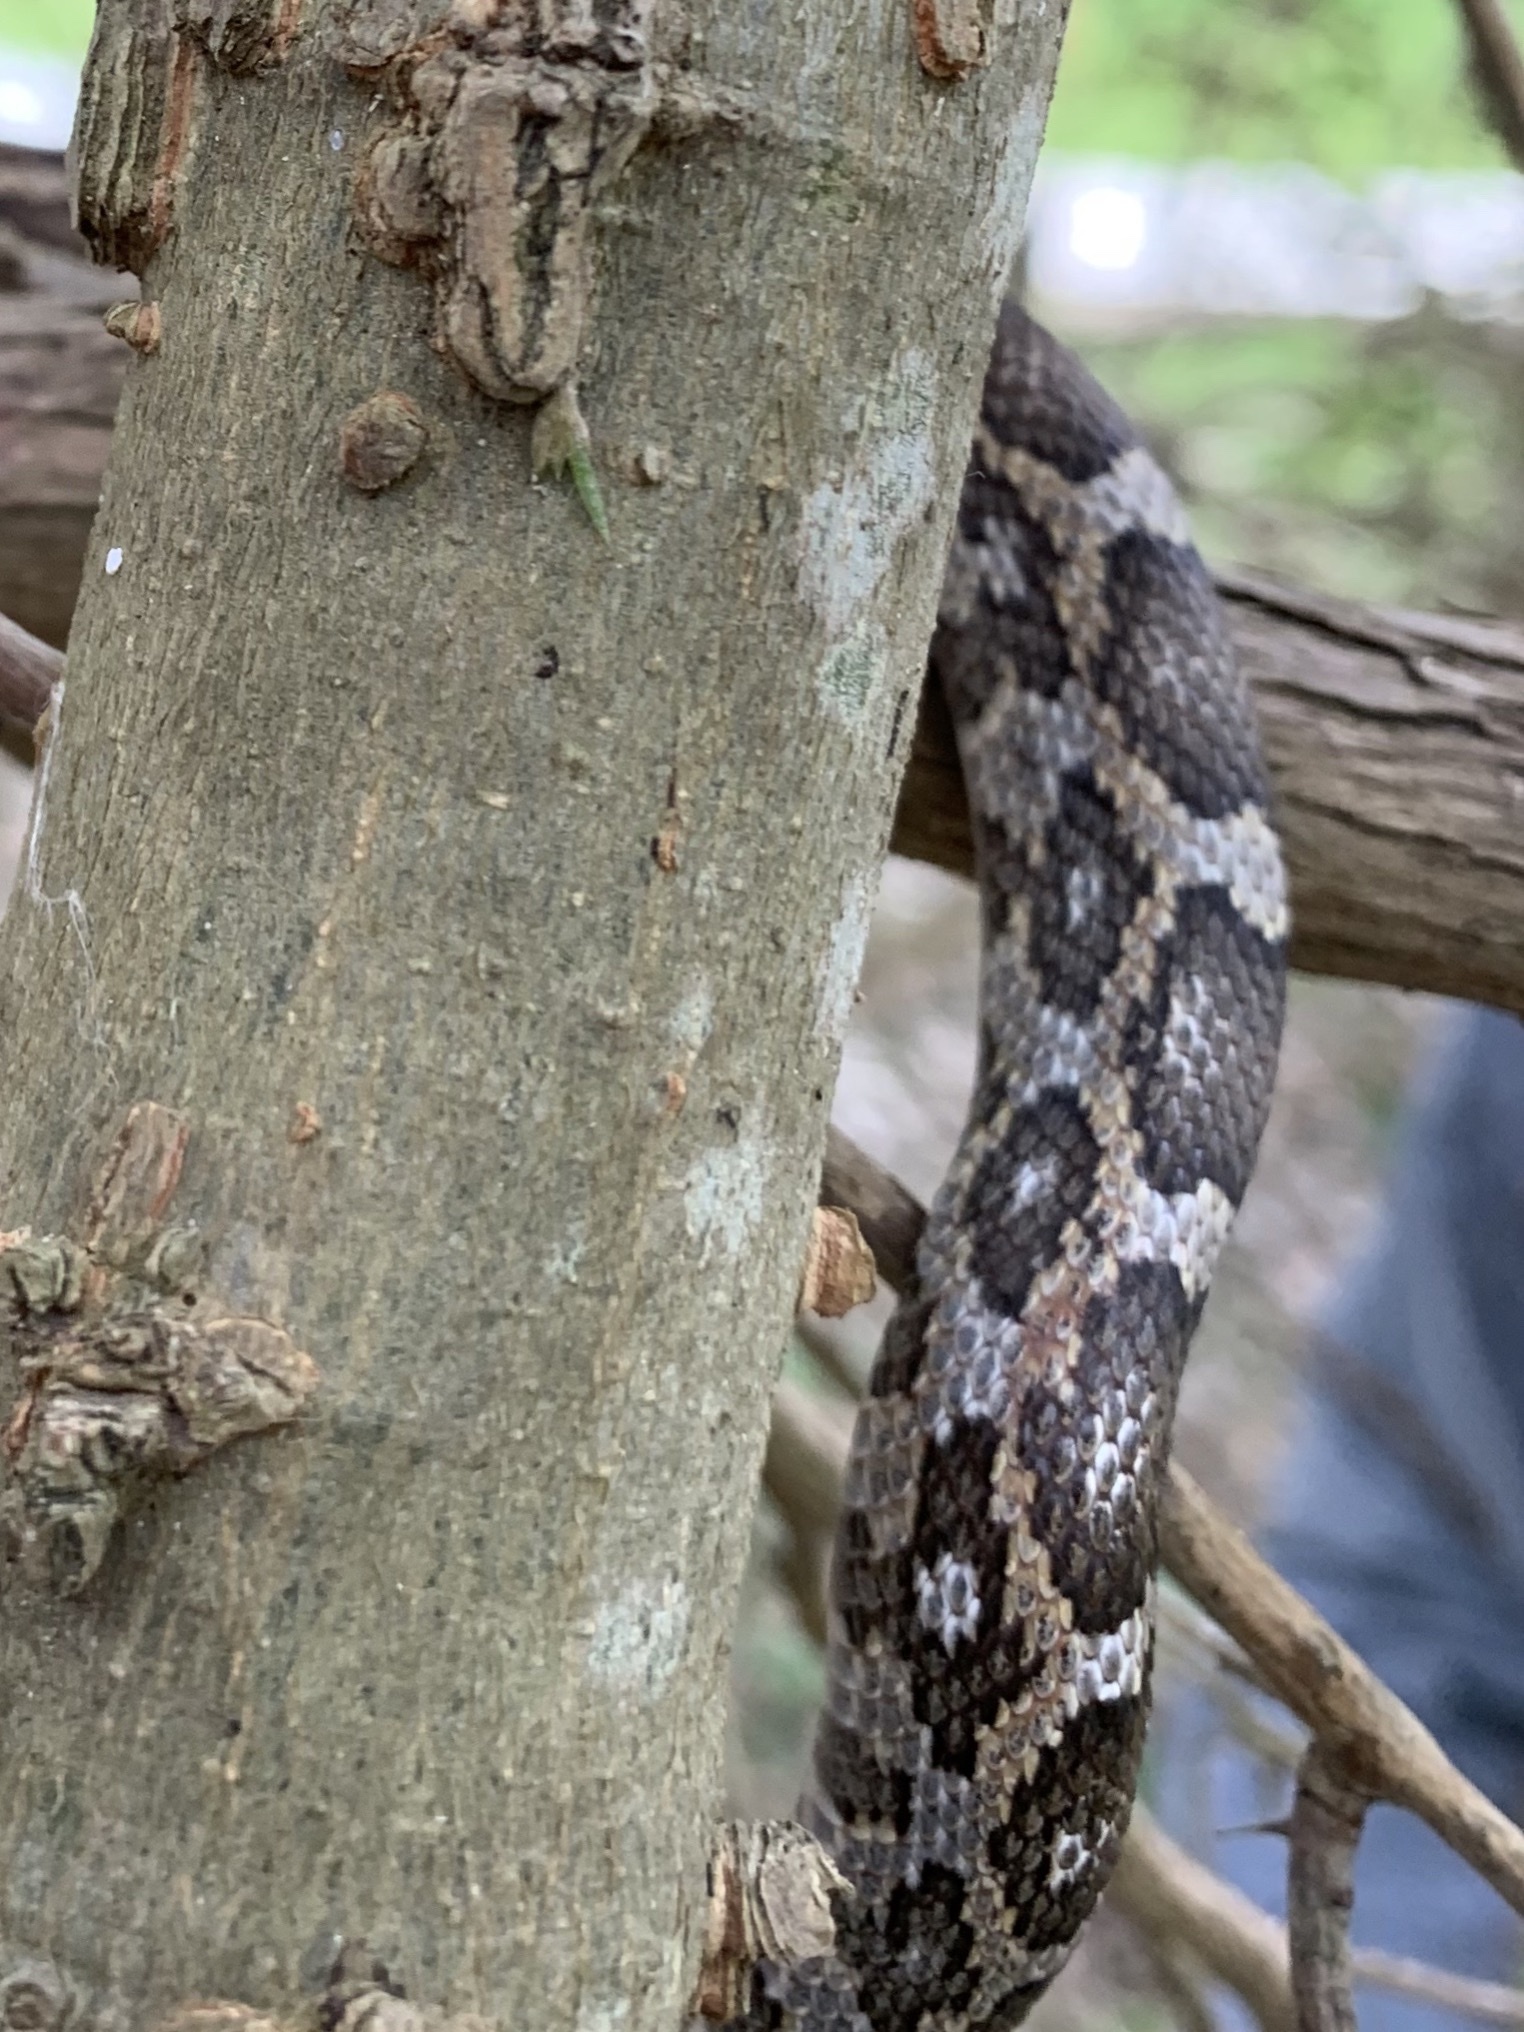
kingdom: Animalia
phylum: Chordata
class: Squamata
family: Colubridae
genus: Pantherophis
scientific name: Pantherophis obsoletus
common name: Black rat snake
